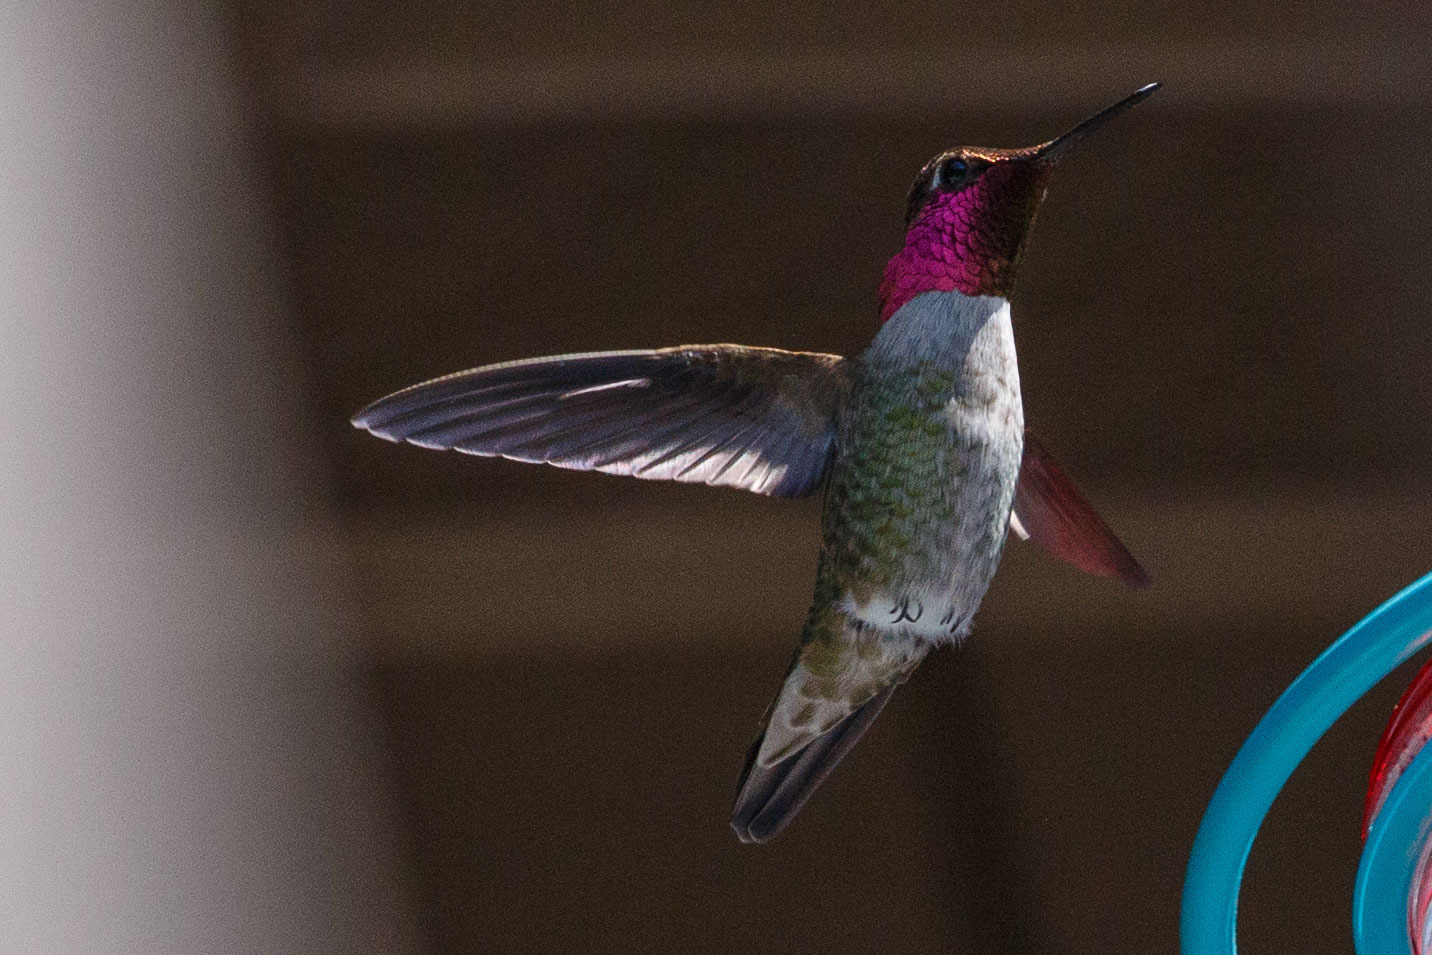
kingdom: Animalia
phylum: Chordata
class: Aves
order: Apodiformes
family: Trochilidae
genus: Calypte
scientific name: Calypte anna
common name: Anna's hummingbird
